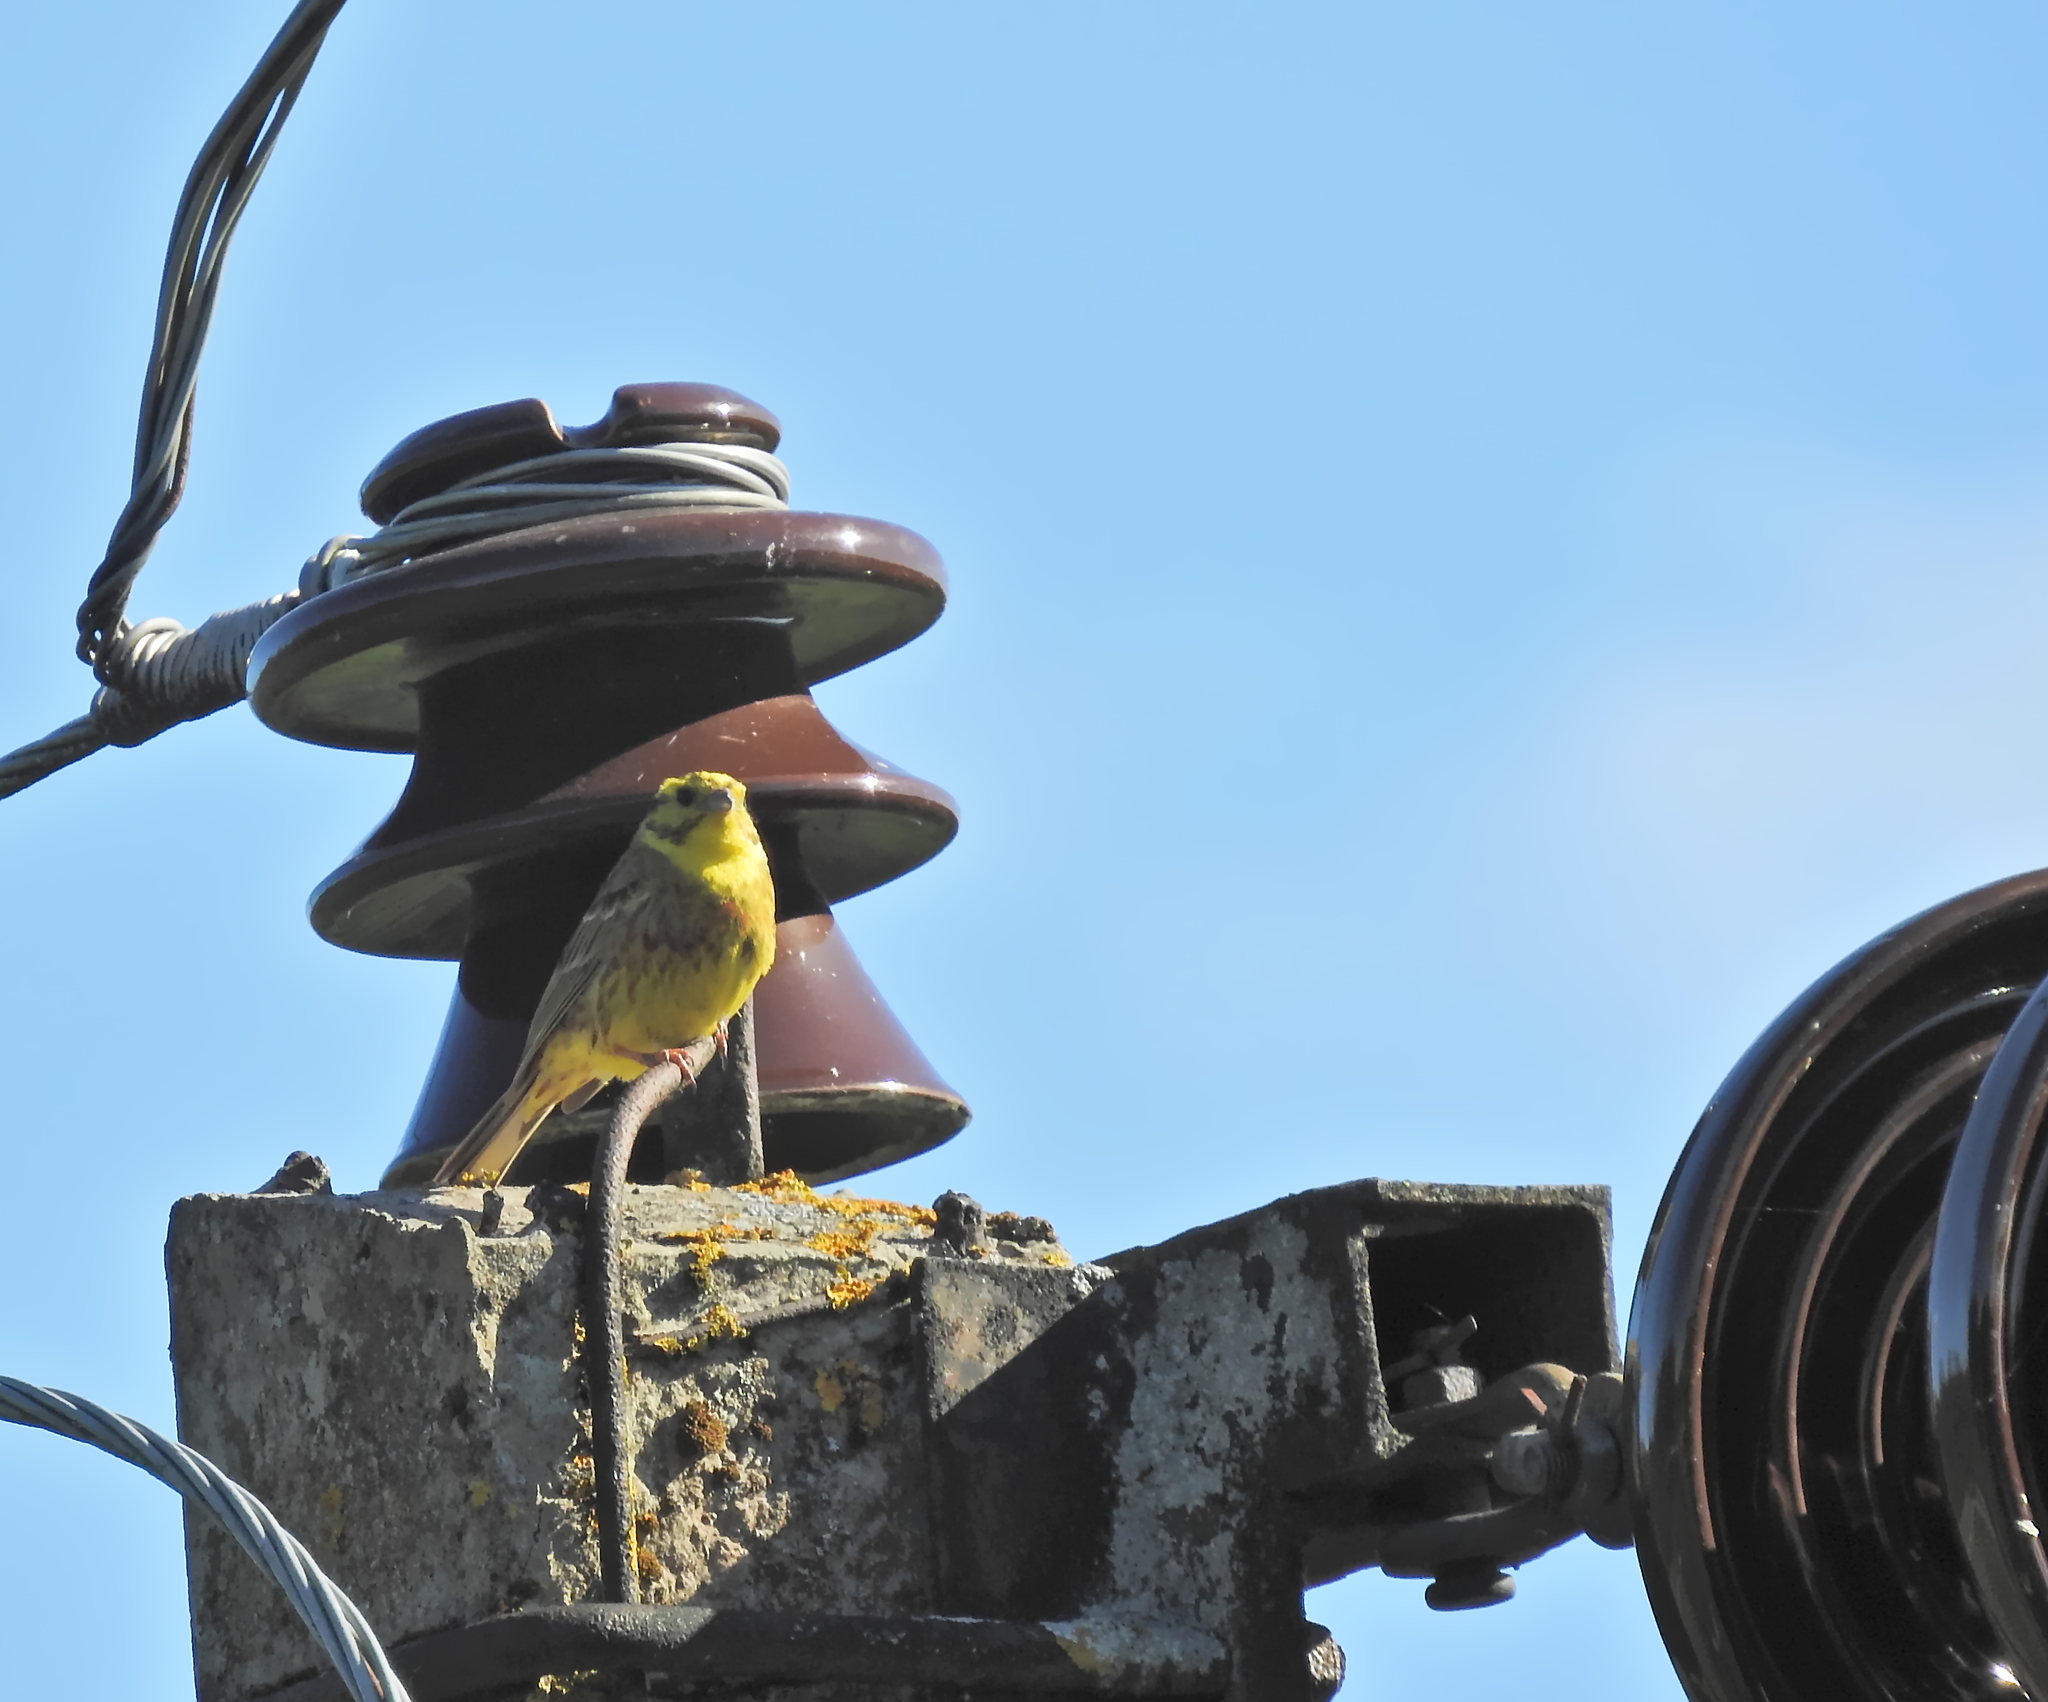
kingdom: Animalia
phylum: Chordata
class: Aves
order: Passeriformes
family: Emberizidae
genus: Emberiza
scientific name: Emberiza citrinella
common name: Yellowhammer
